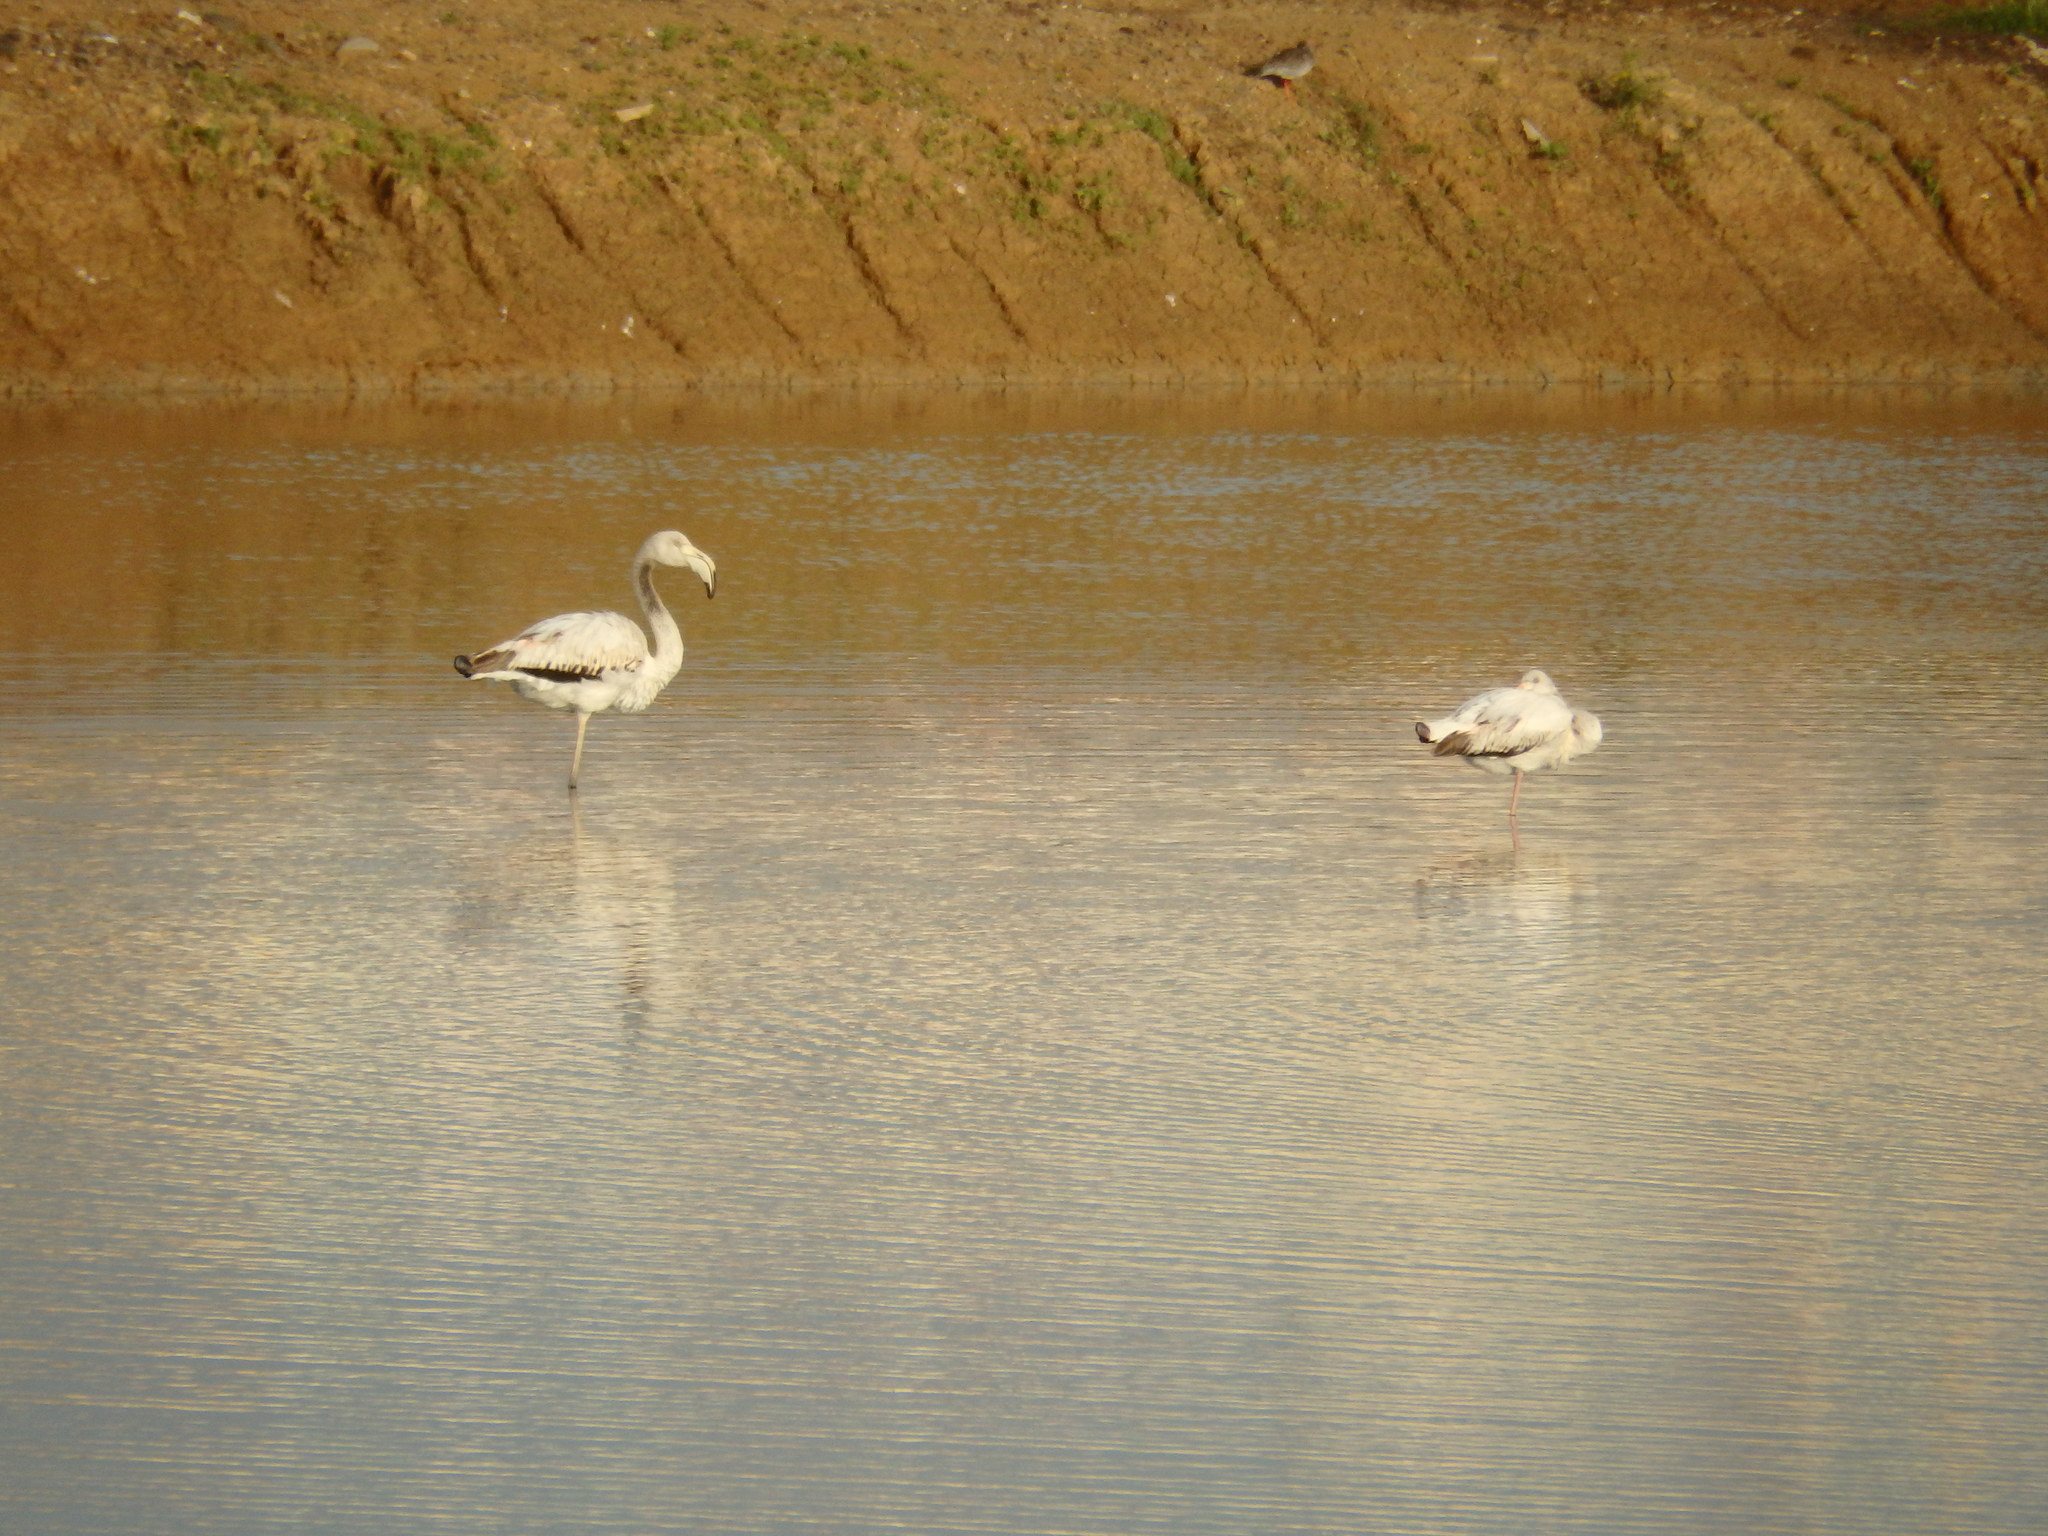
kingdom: Animalia
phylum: Chordata
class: Aves
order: Phoenicopteriformes
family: Phoenicopteridae
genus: Phoenicopterus
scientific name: Phoenicopterus roseus
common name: Greater flamingo
